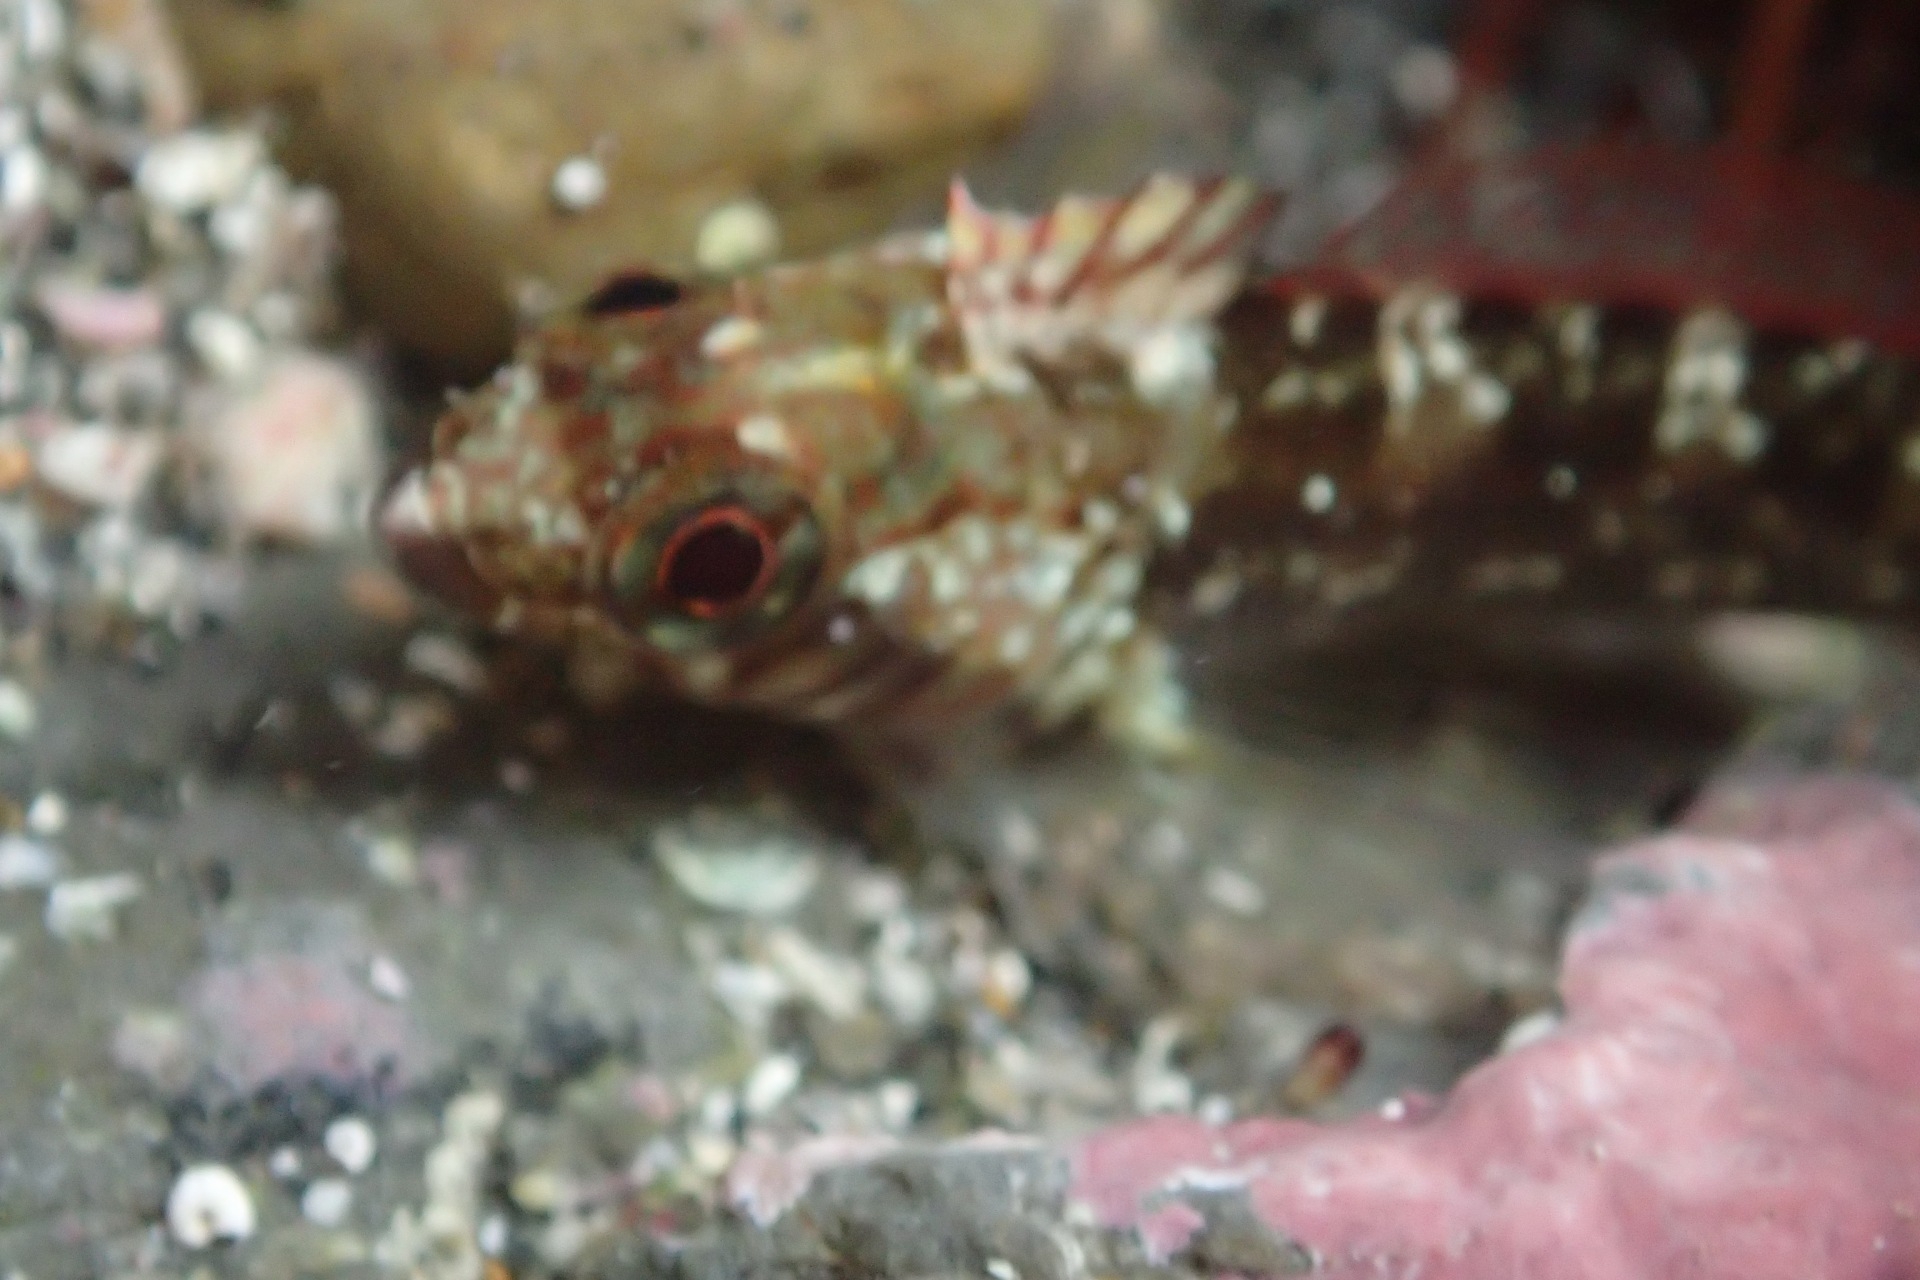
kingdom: Animalia
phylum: Chordata
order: Perciformes
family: Tripterygiidae
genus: Forsterygion
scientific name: Forsterygion lapillum
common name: Common triplefin
